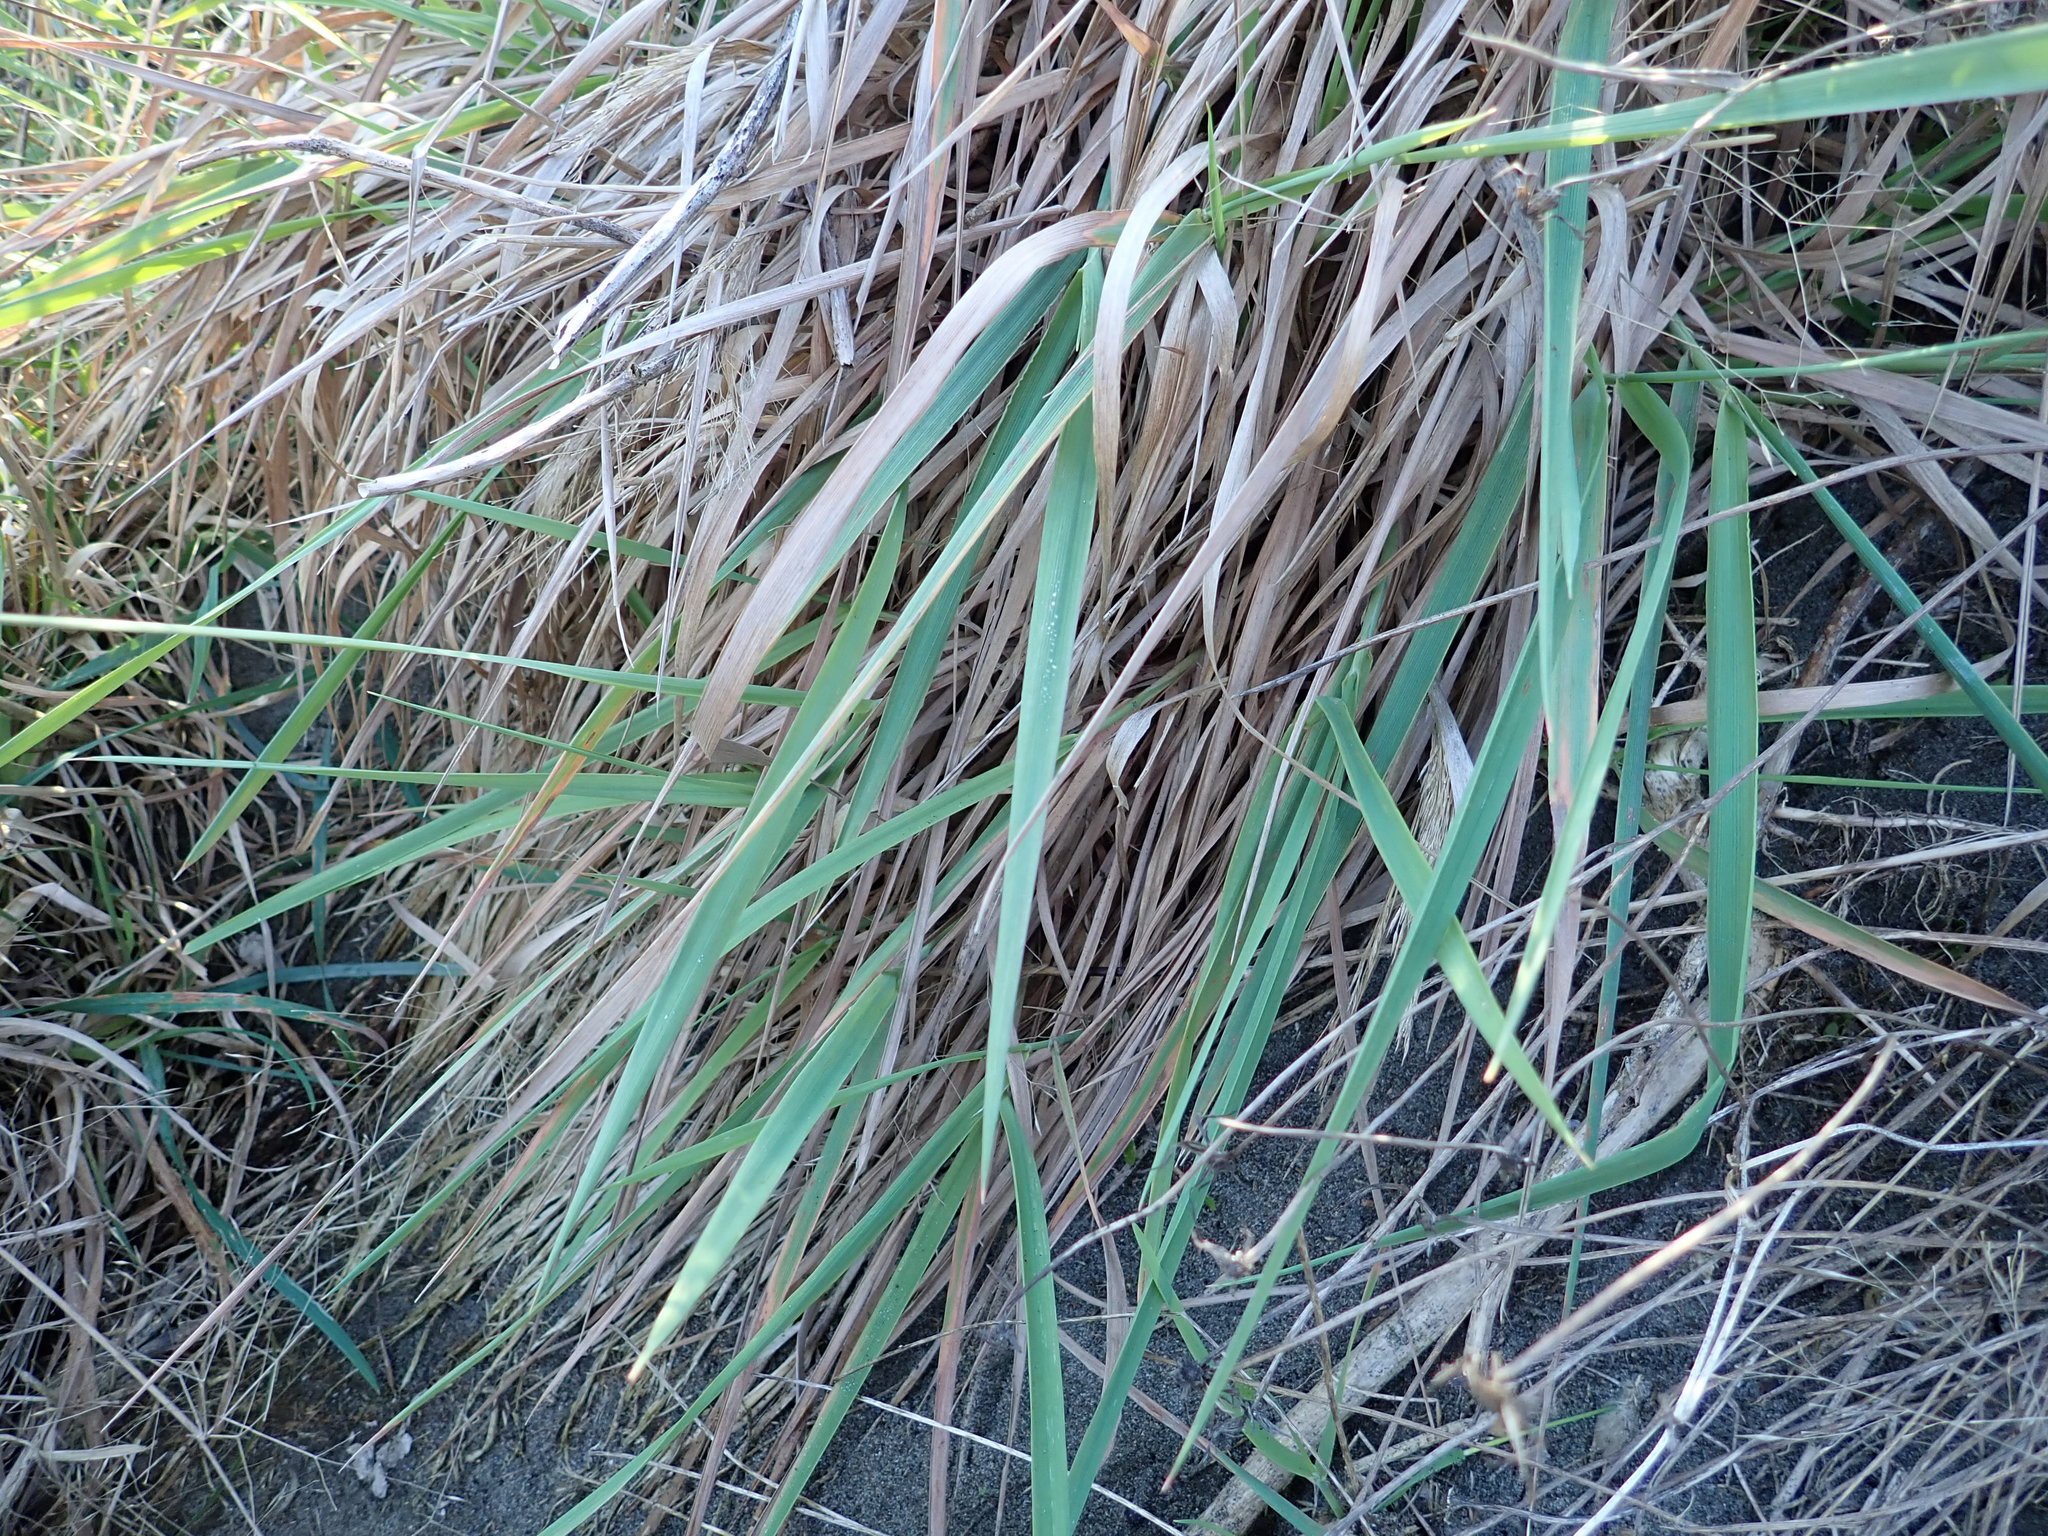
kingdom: Plantae
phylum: Tracheophyta
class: Liliopsida
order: Poales
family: Poaceae
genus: Lachnagrostis
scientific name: Lachnagrostis billardierei
